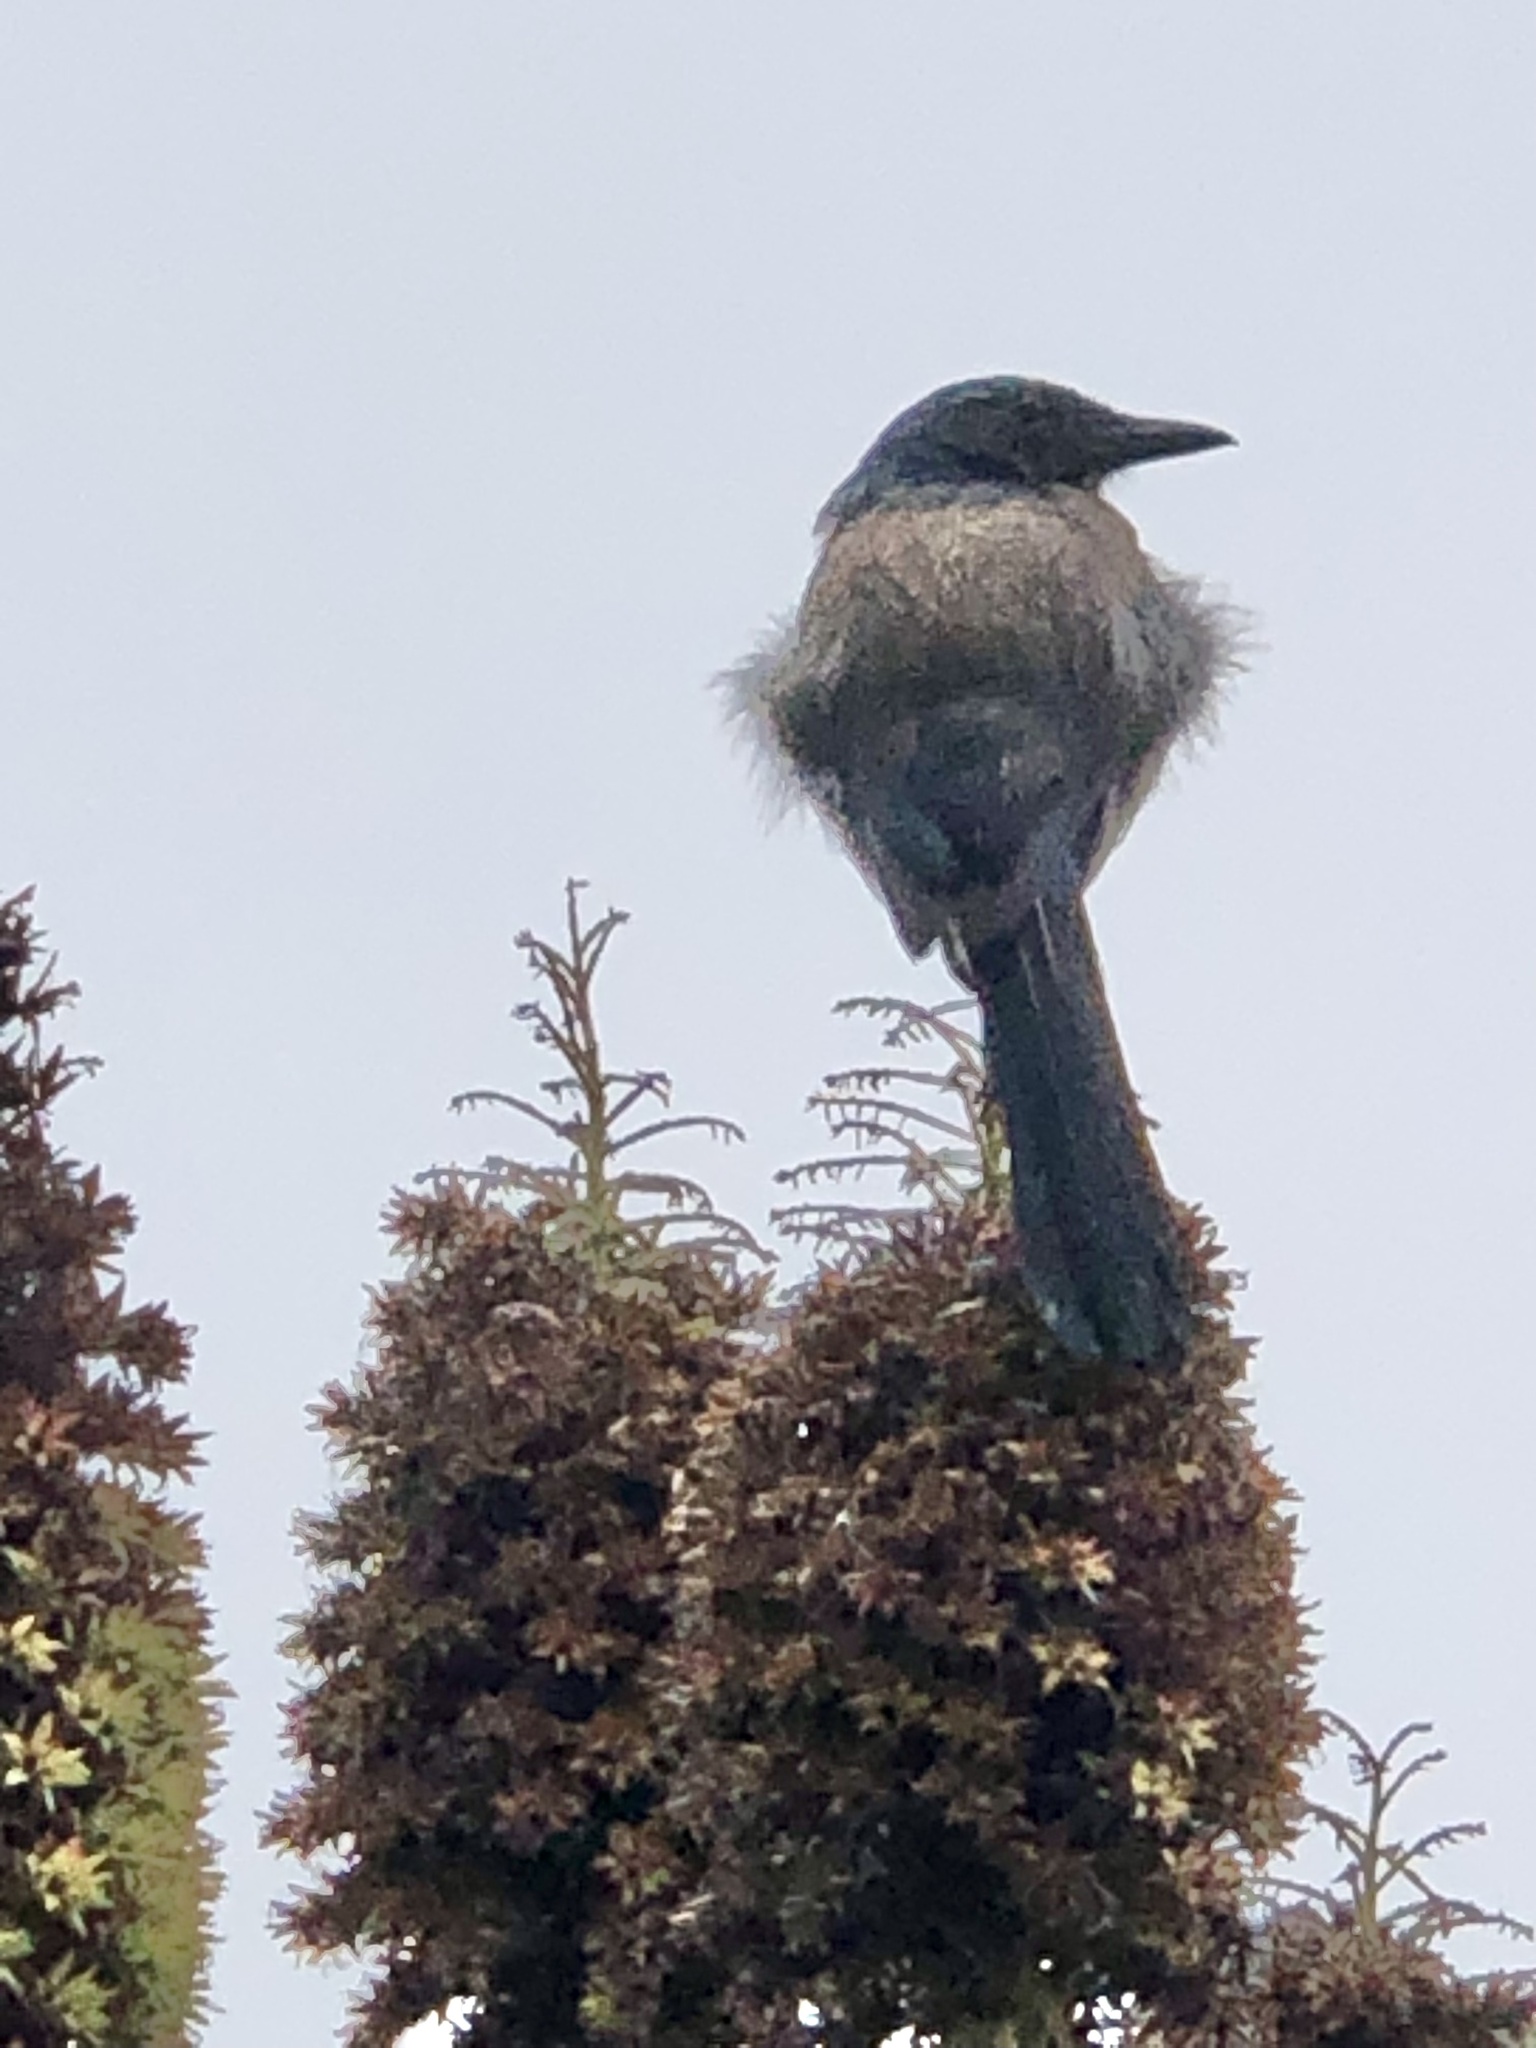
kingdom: Animalia
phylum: Chordata
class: Aves
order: Passeriformes
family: Corvidae
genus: Aphelocoma
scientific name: Aphelocoma californica
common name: California scrub-jay
